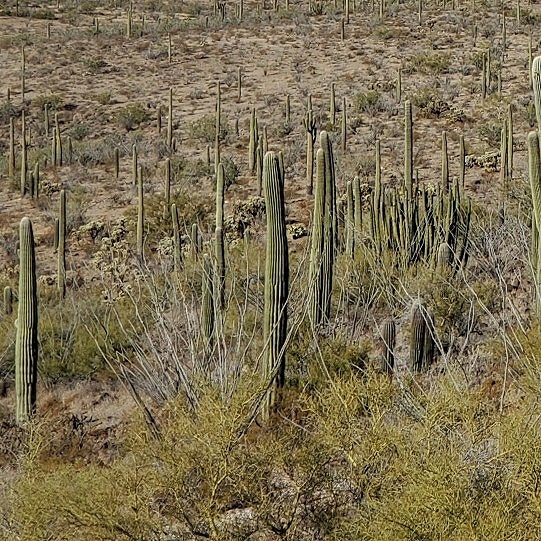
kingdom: Plantae
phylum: Tracheophyta
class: Magnoliopsida
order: Ericales
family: Fouquieriaceae
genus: Fouquieria
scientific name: Fouquieria splendens
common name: Vine-cactus
